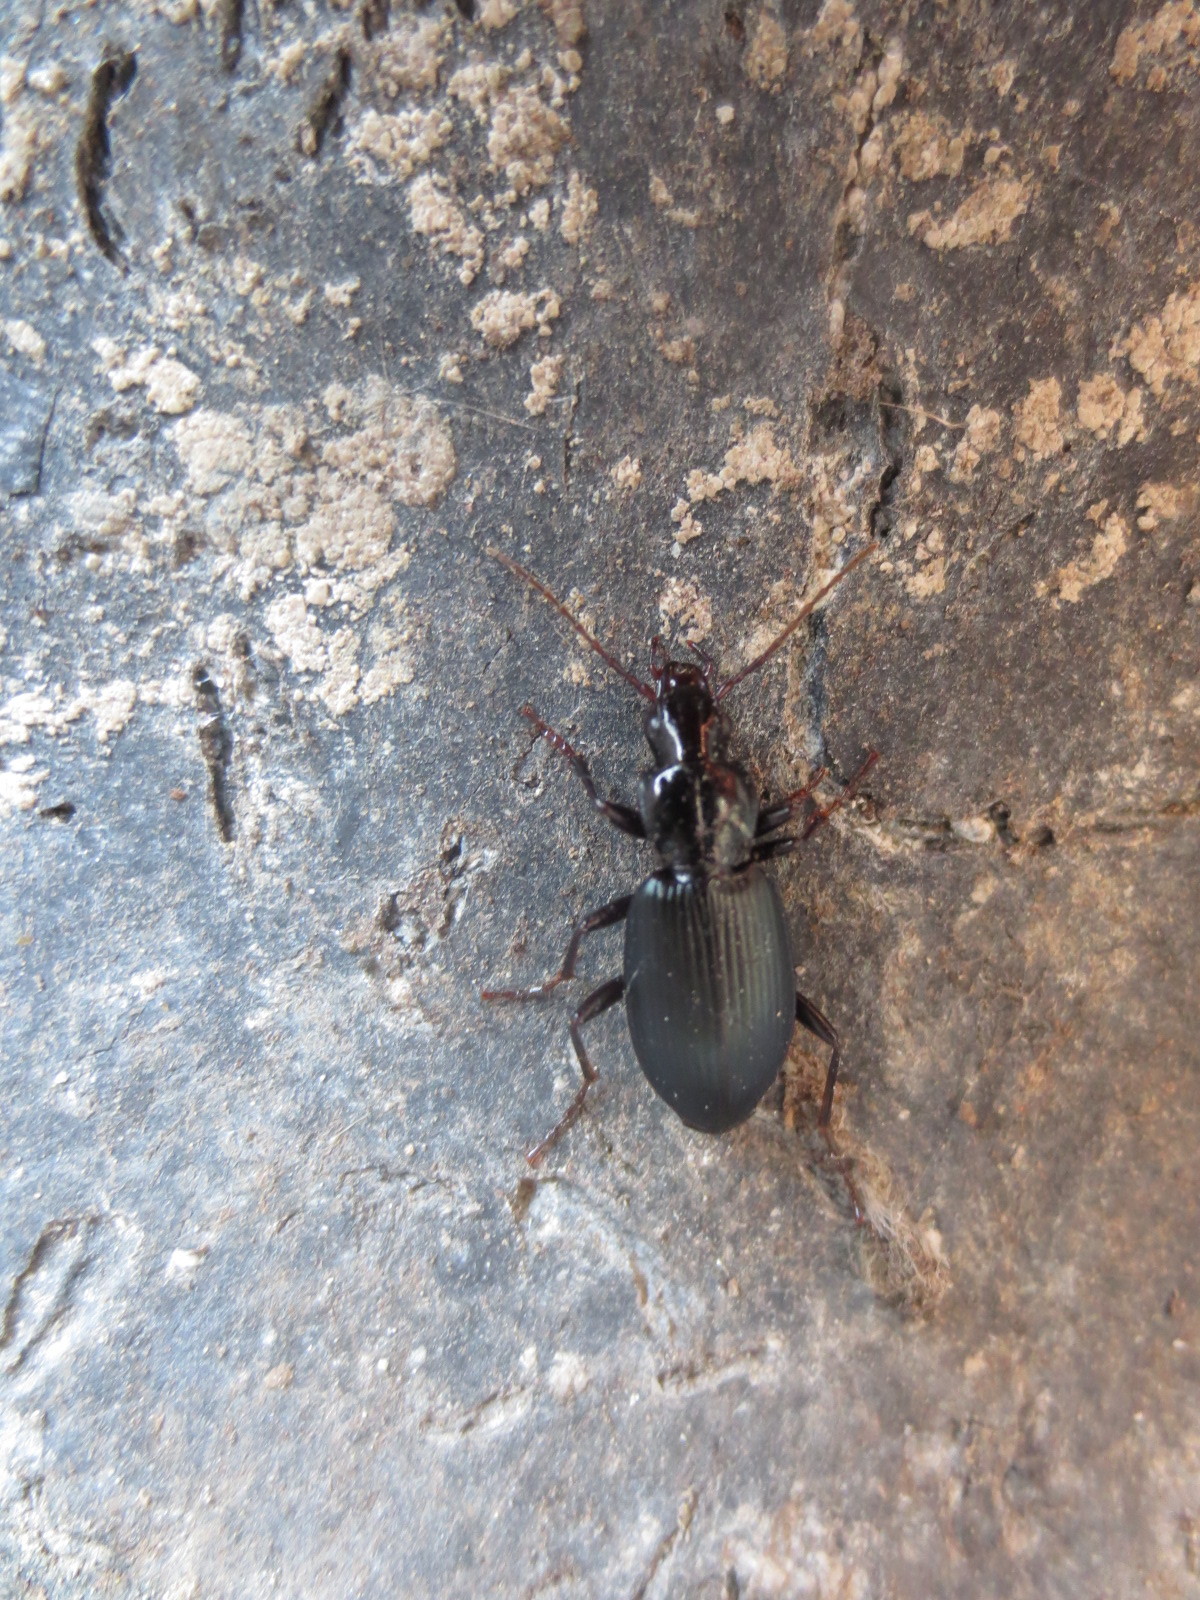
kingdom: Animalia
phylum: Arthropoda
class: Insecta
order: Coleoptera
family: Carabidae
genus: Laemostenus
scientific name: Laemostenus complanatus
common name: Cosmopolitan ground beetle
